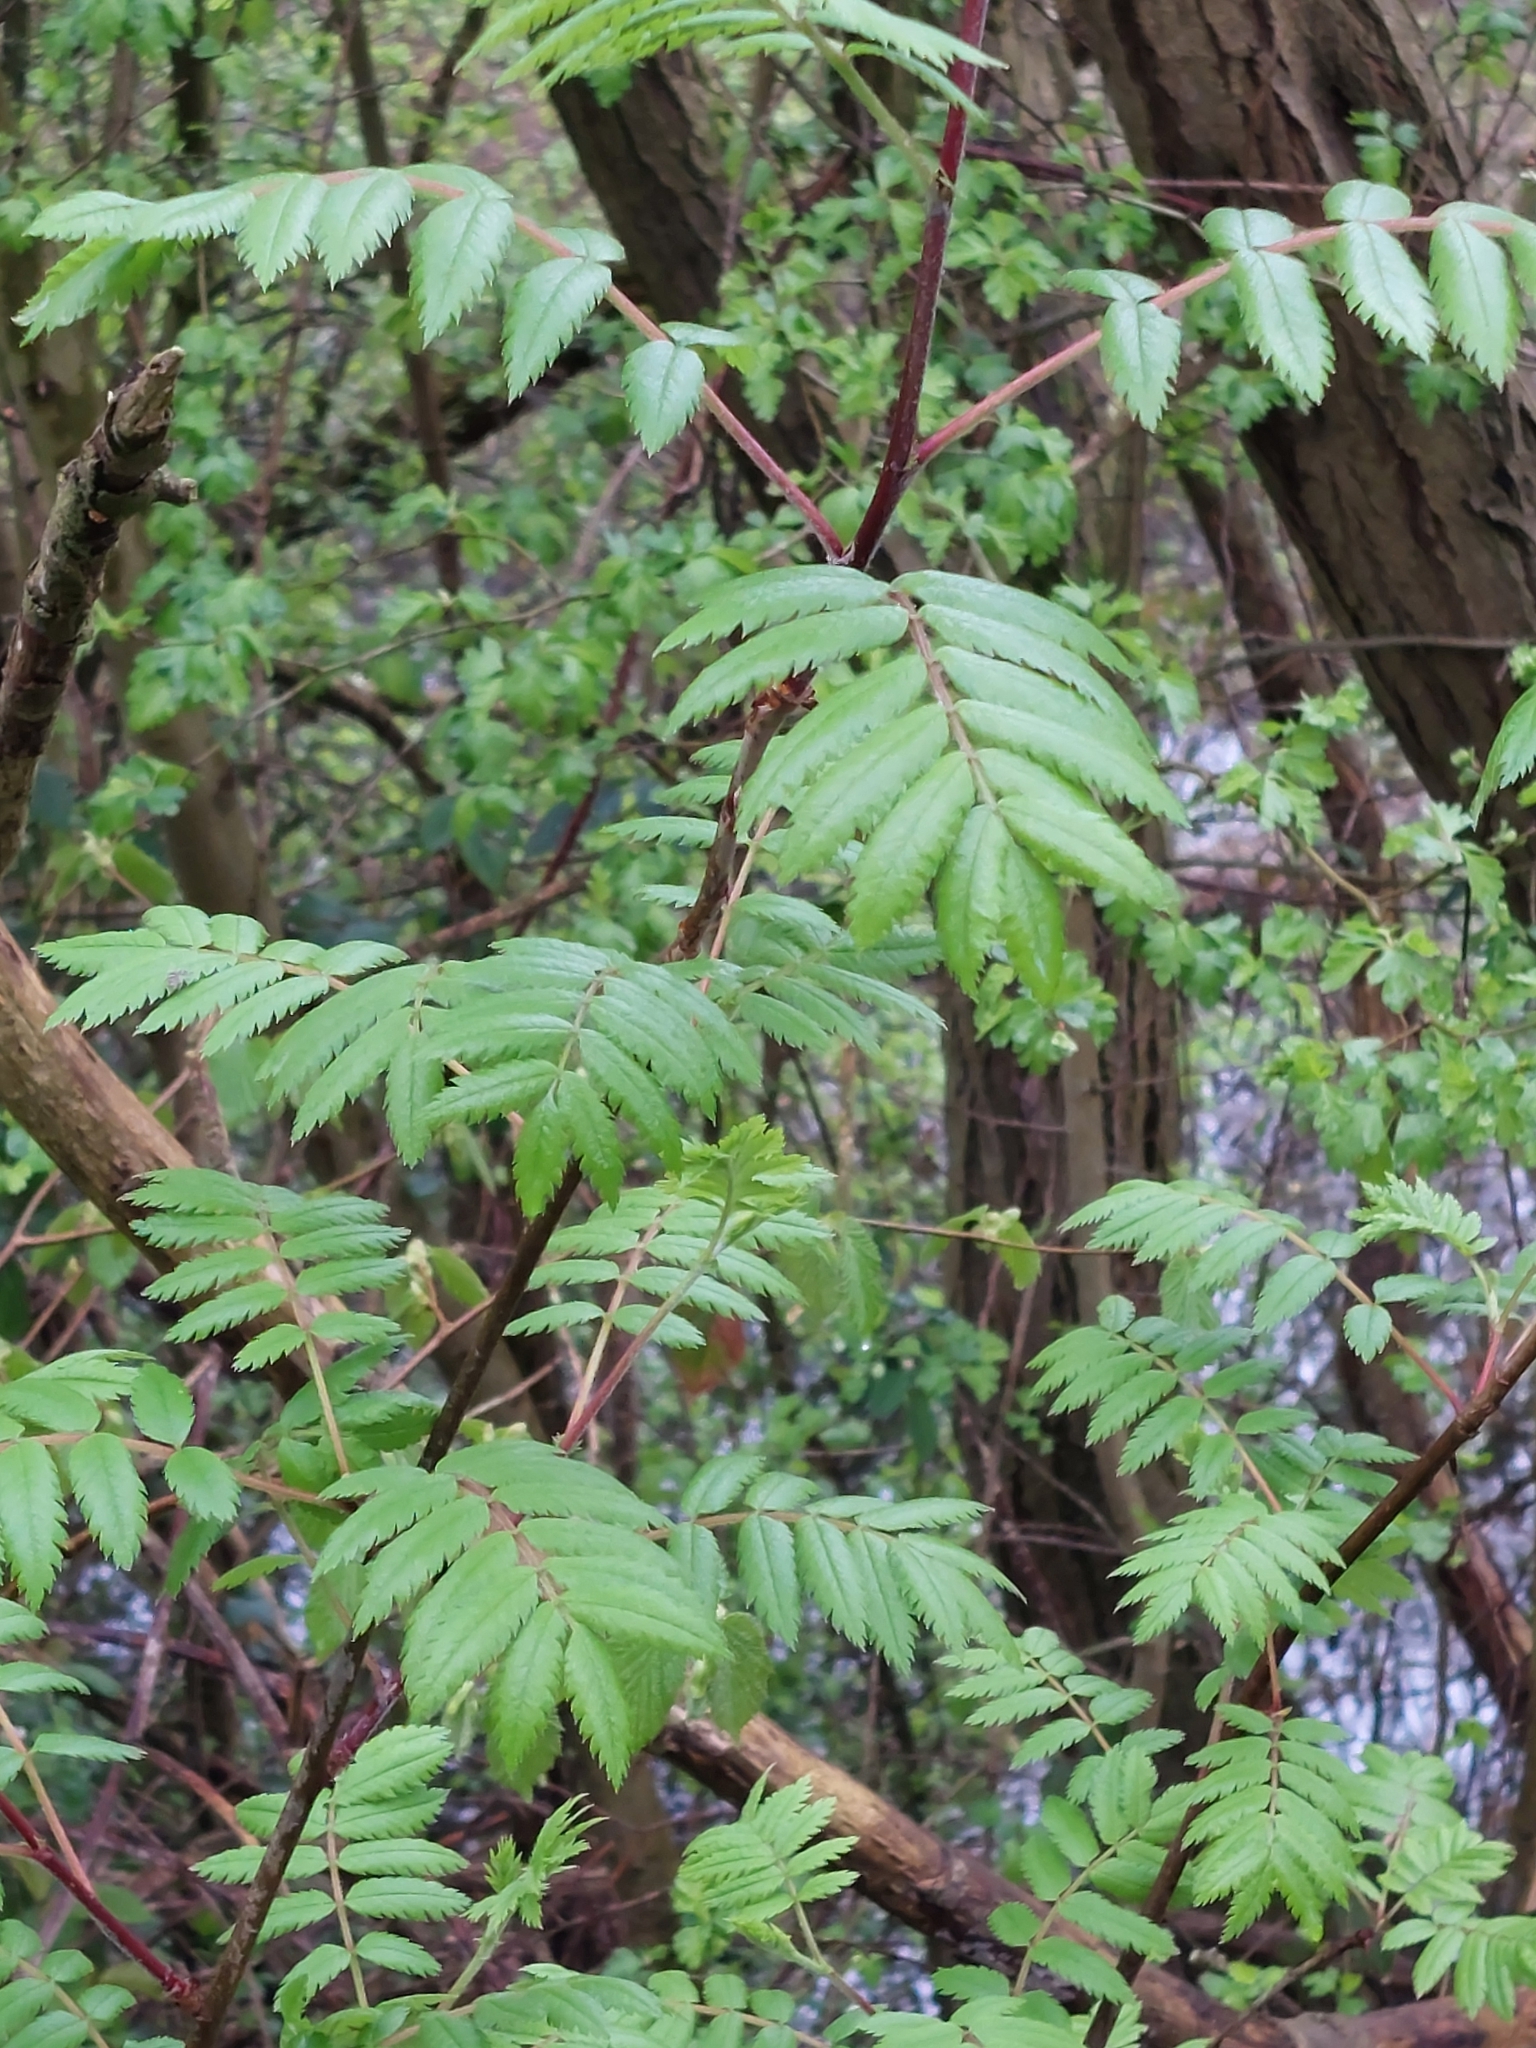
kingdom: Plantae
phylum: Tracheophyta
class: Magnoliopsida
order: Rosales
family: Rosaceae
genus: Sorbus
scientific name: Sorbus aucuparia
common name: Rowan
